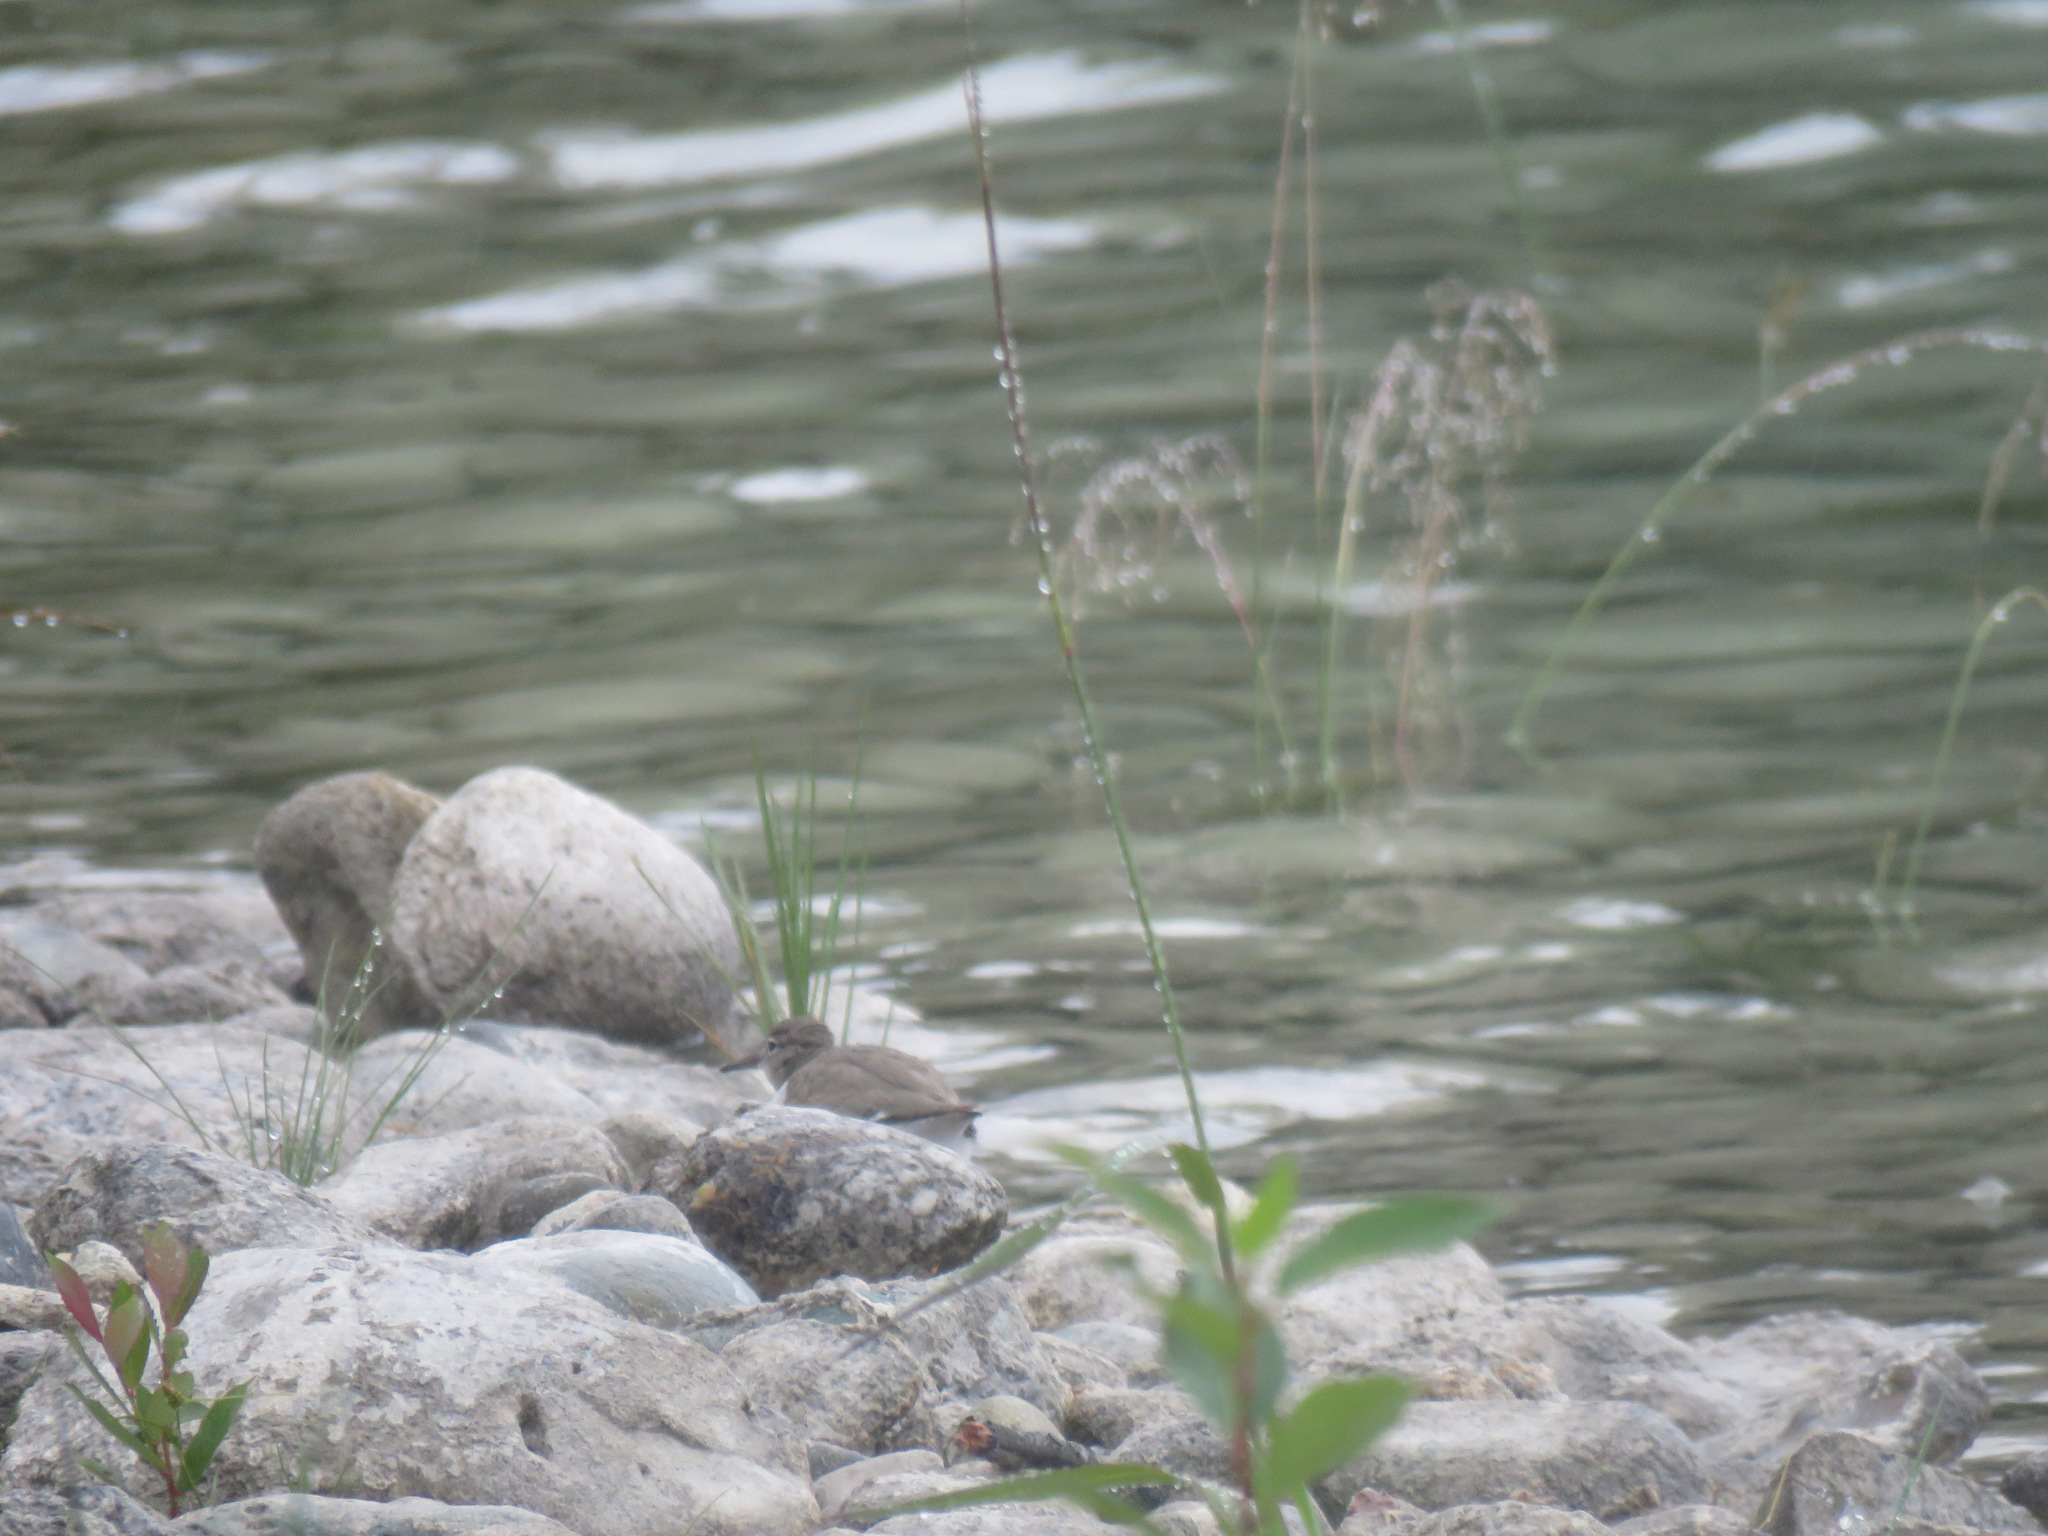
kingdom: Animalia
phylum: Chordata
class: Aves
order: Charadriiformes
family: Scolopacidae
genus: Actitis
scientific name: Actitis macularius
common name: Spotted sandpiper
